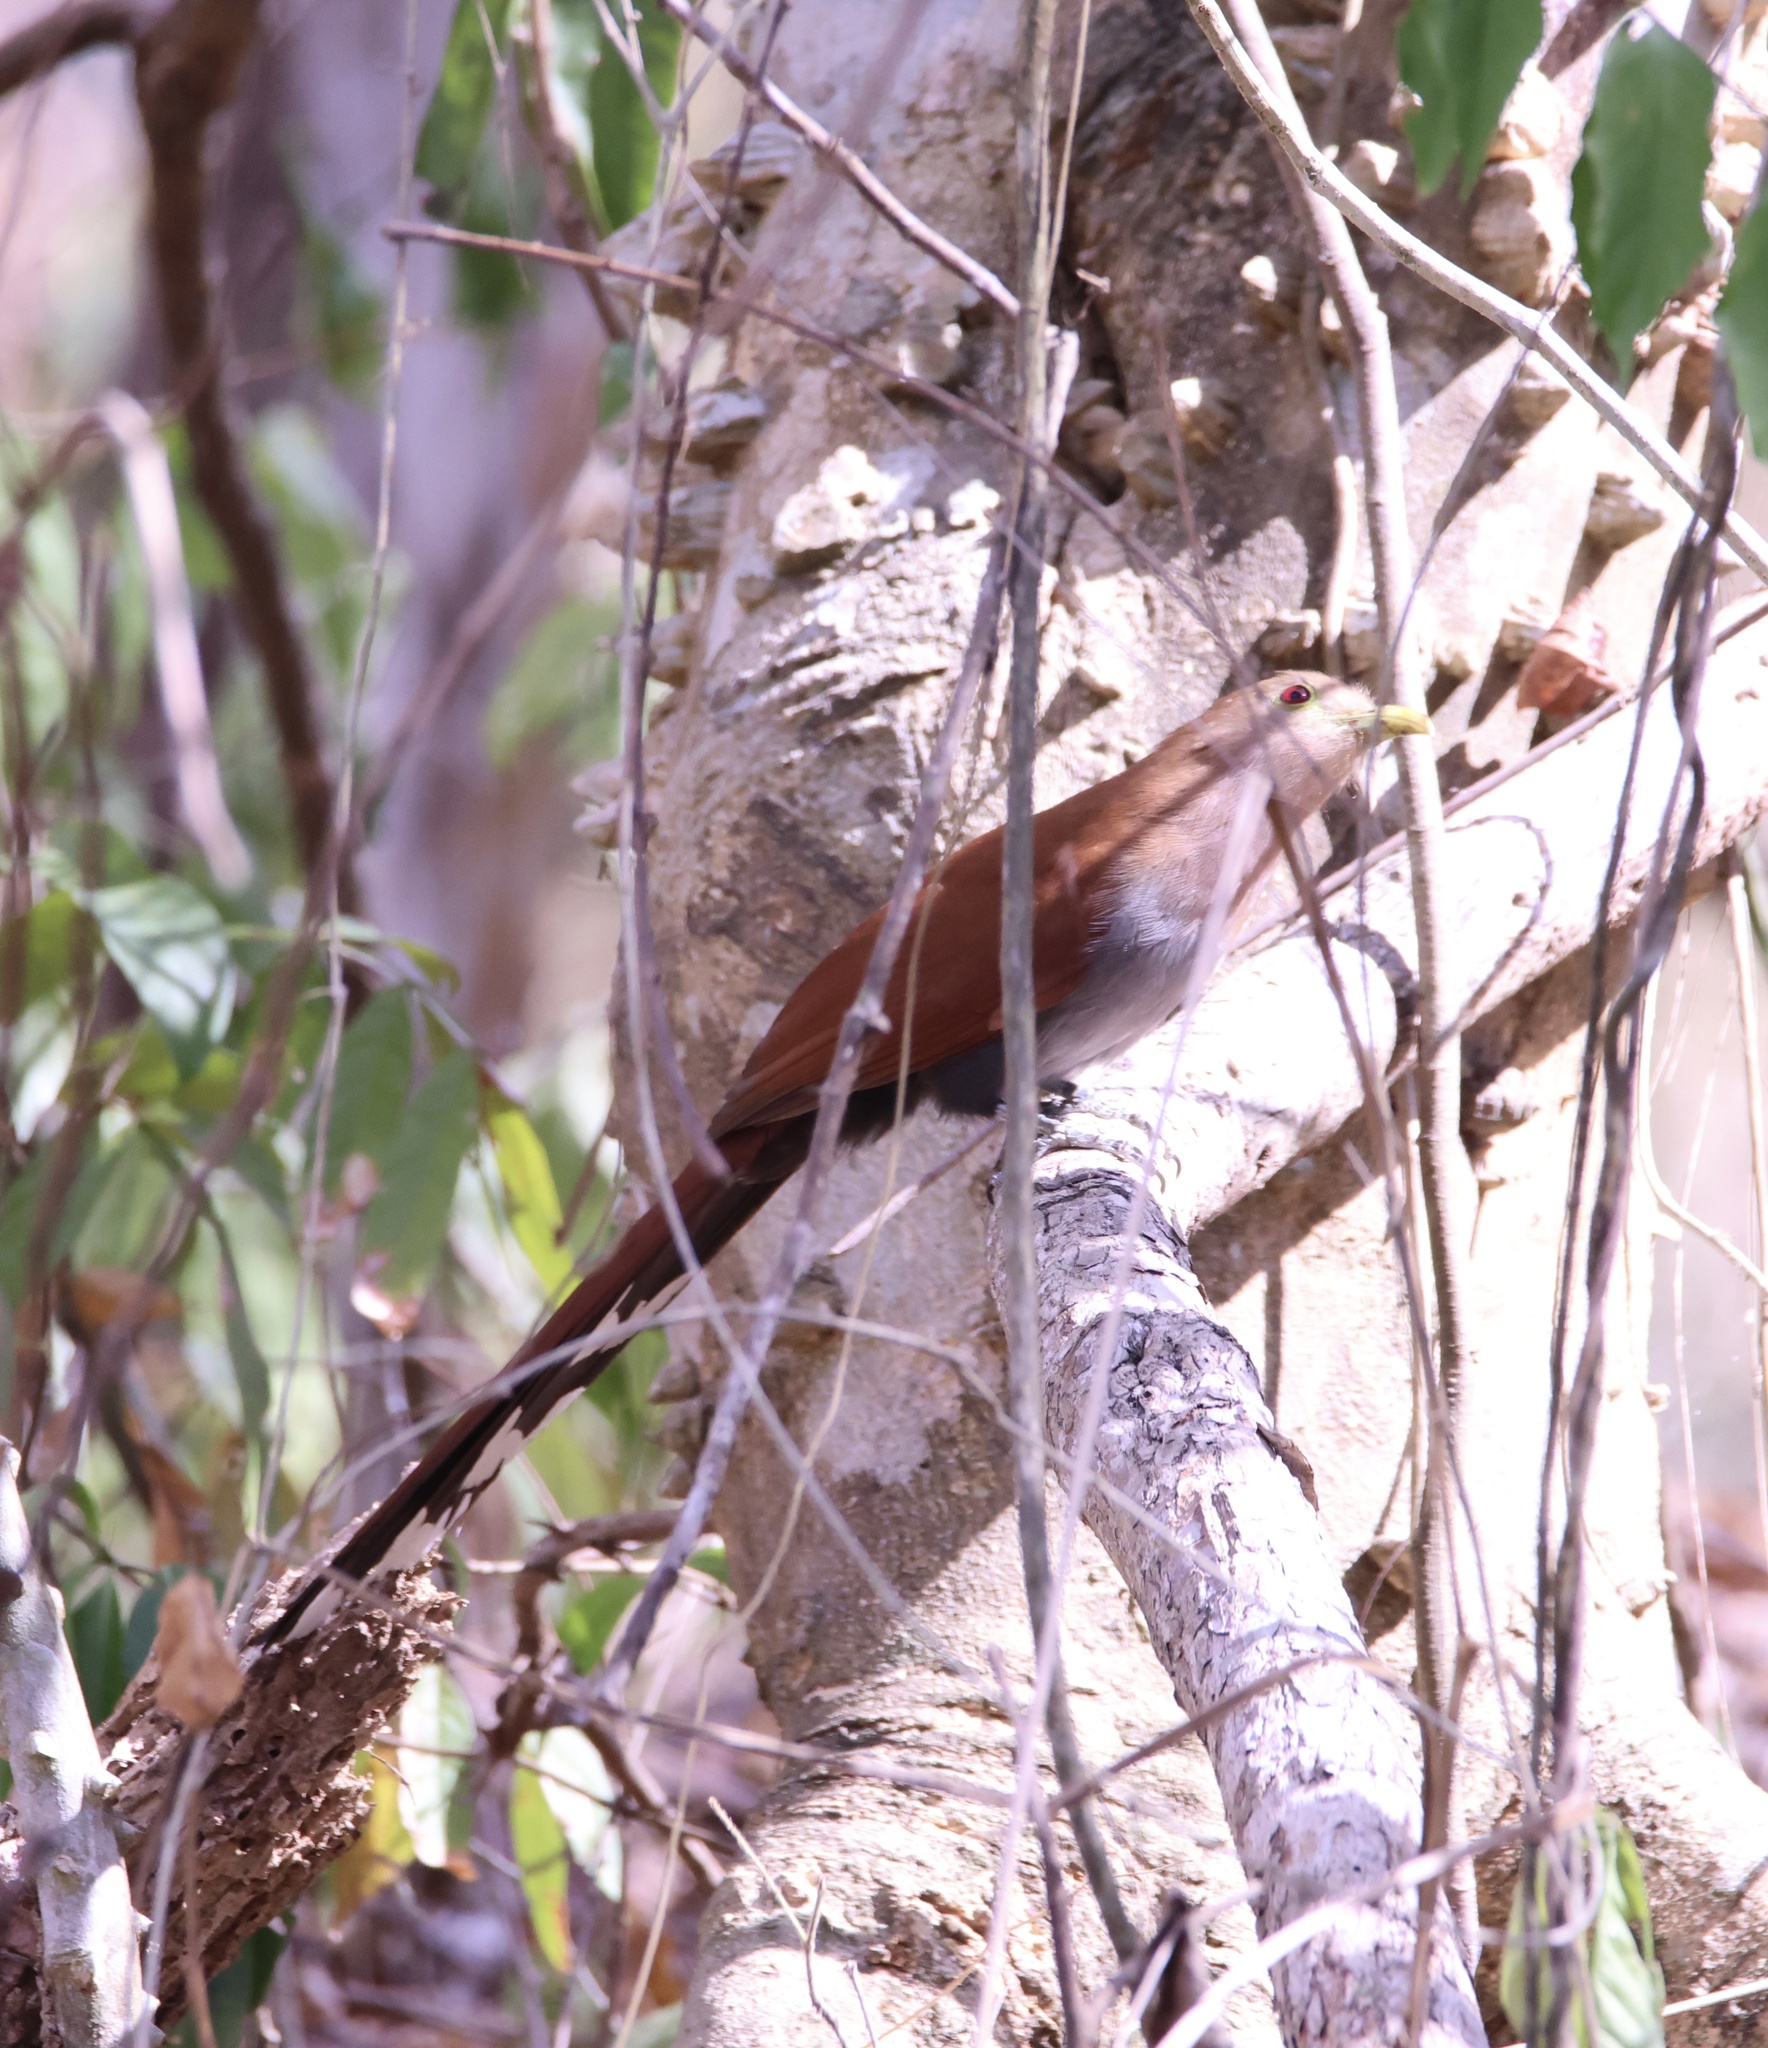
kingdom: Animalia
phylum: Chordata
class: Aves
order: Cuculiformes
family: Cuculidae
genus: Piaya
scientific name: Piaya cayana
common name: Squirrel cuckoo
